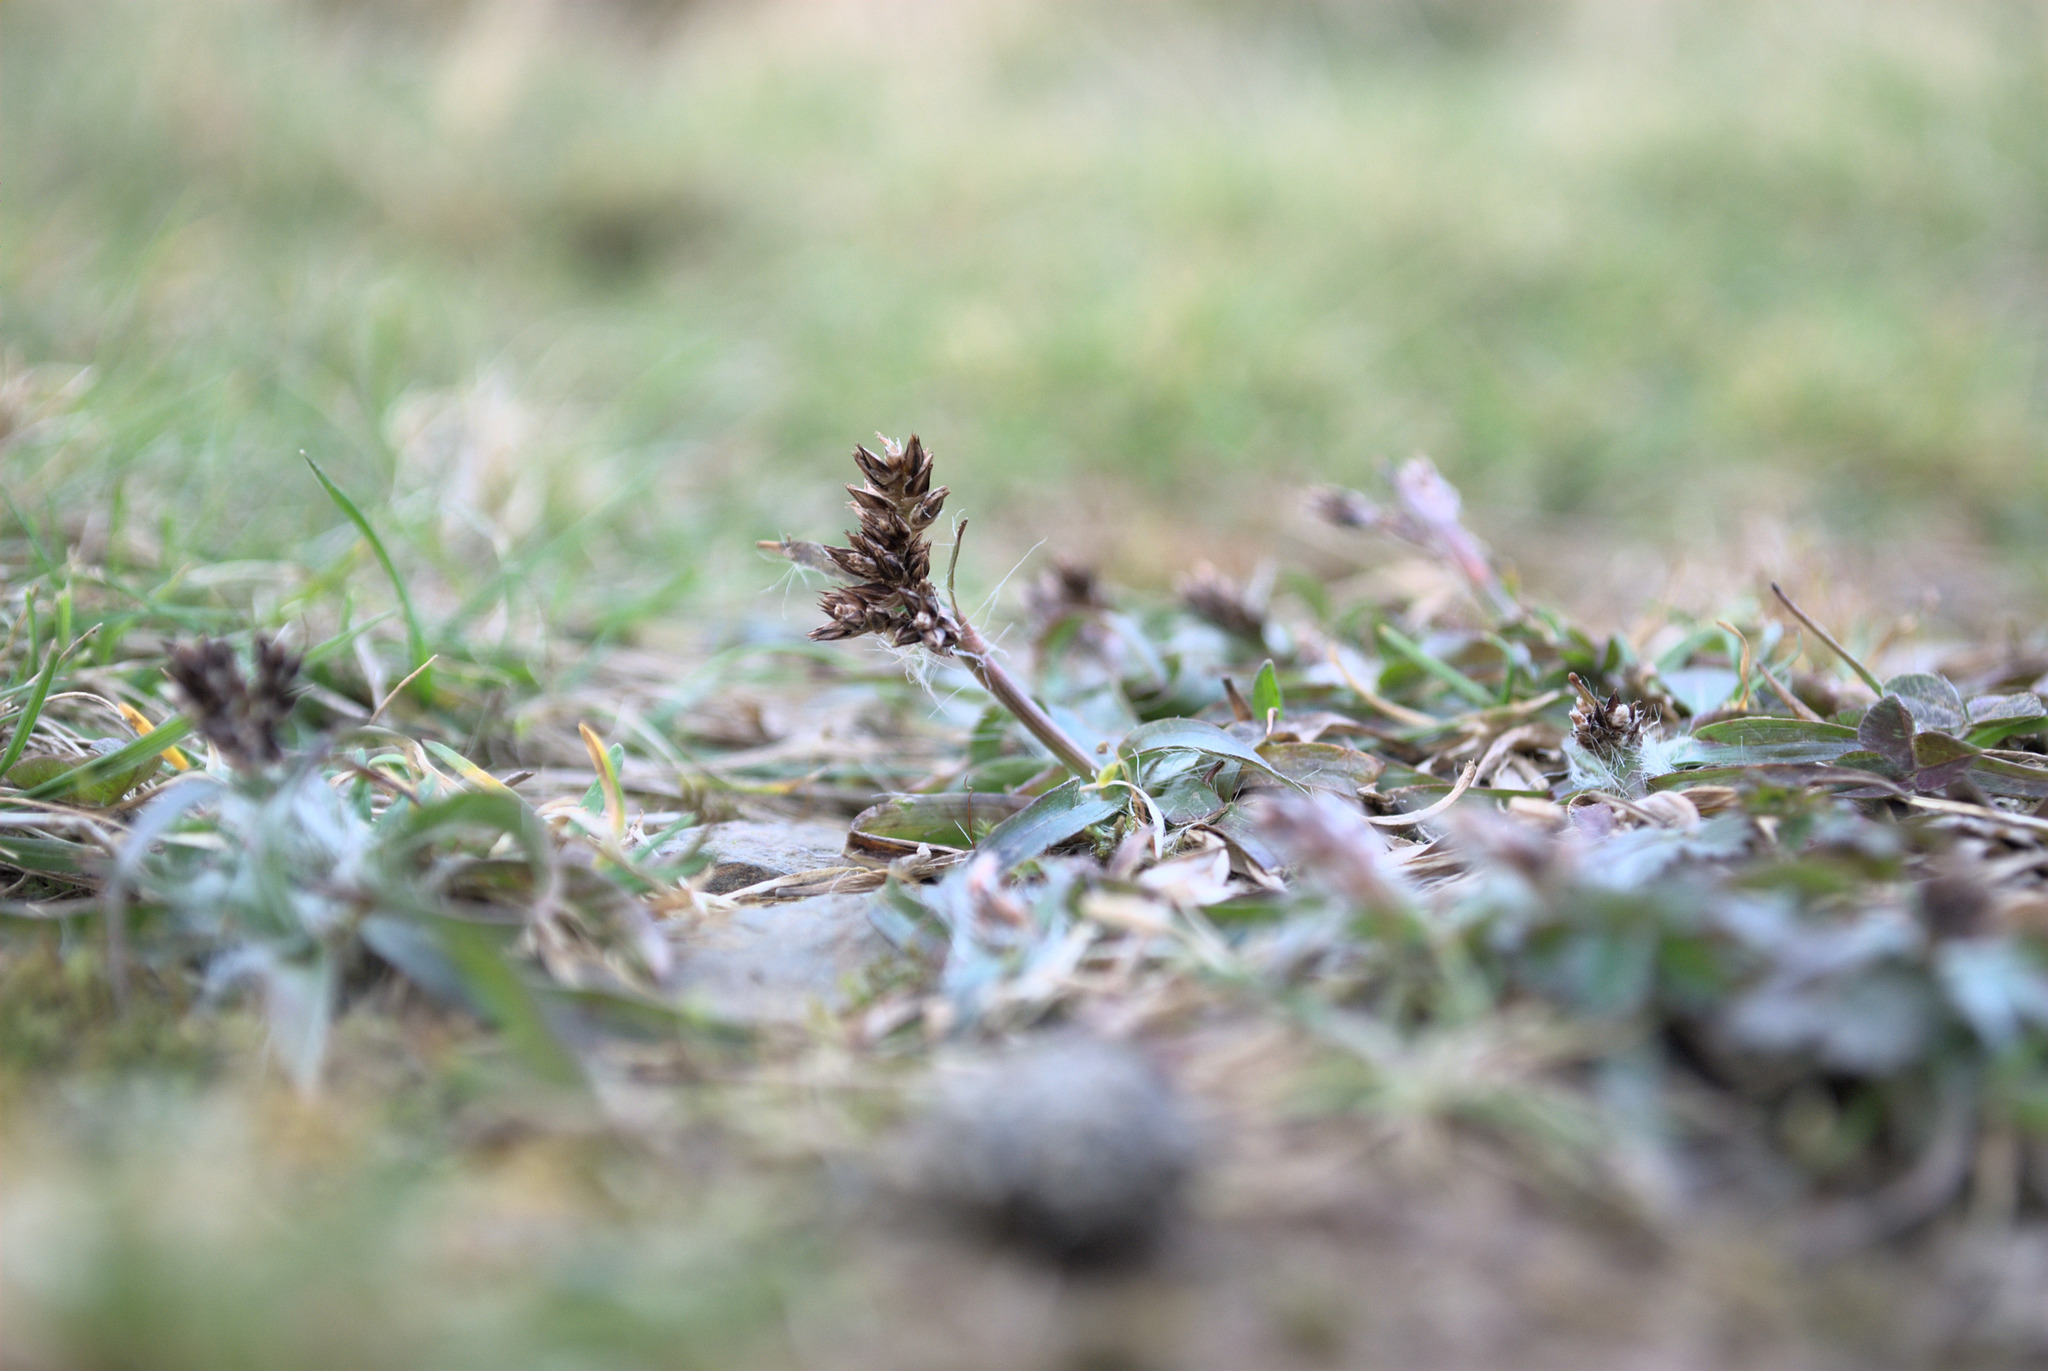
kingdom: Plantae
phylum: Tracheophyta
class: Liliopsida
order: Poales
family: Juncaceae
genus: Luzula
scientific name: Luzula campestris
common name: Field wood-rush
